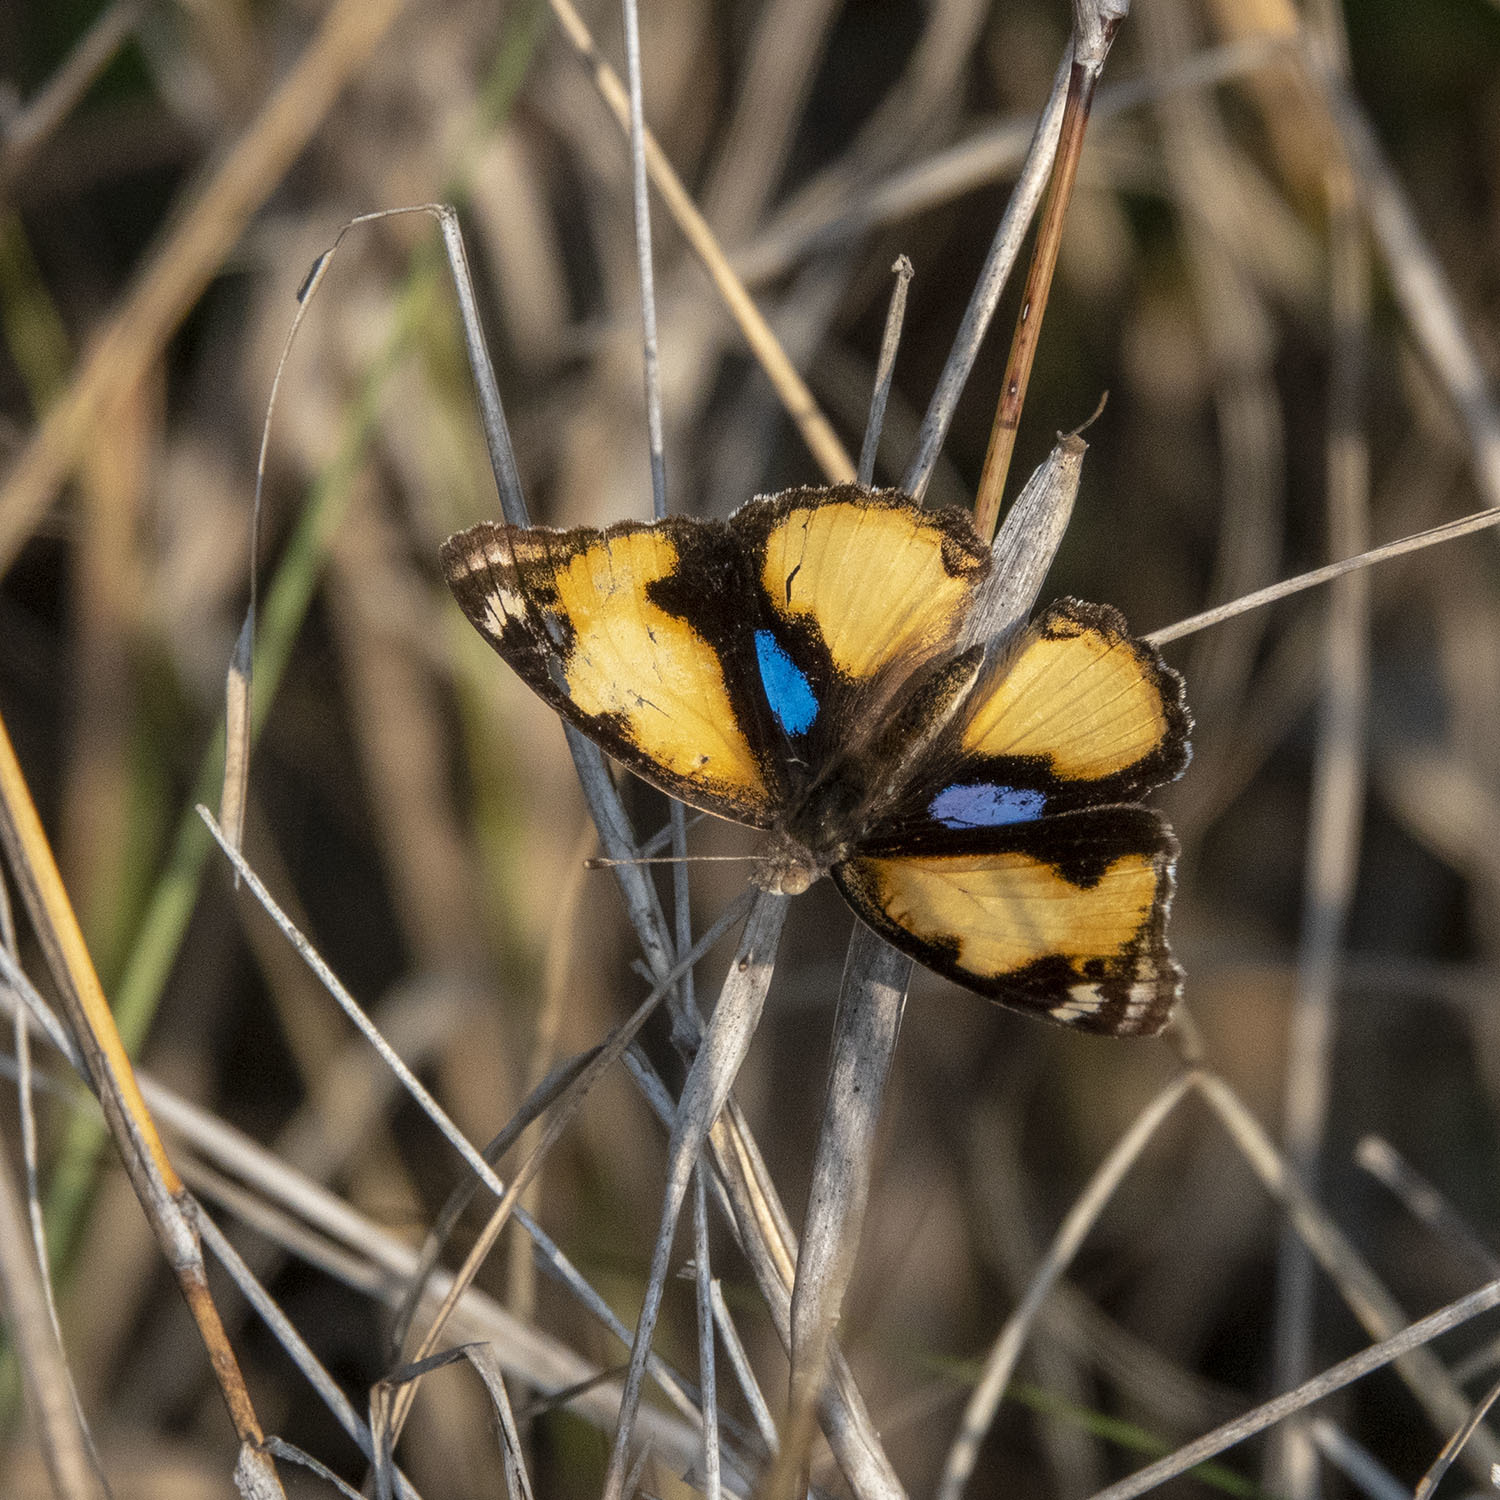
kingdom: Animalia
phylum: Arthropoda
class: Insecta
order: Lepidoptera
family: Nymphalidae
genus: Junonia
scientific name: Junonia hierta
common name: Yellow pansy
